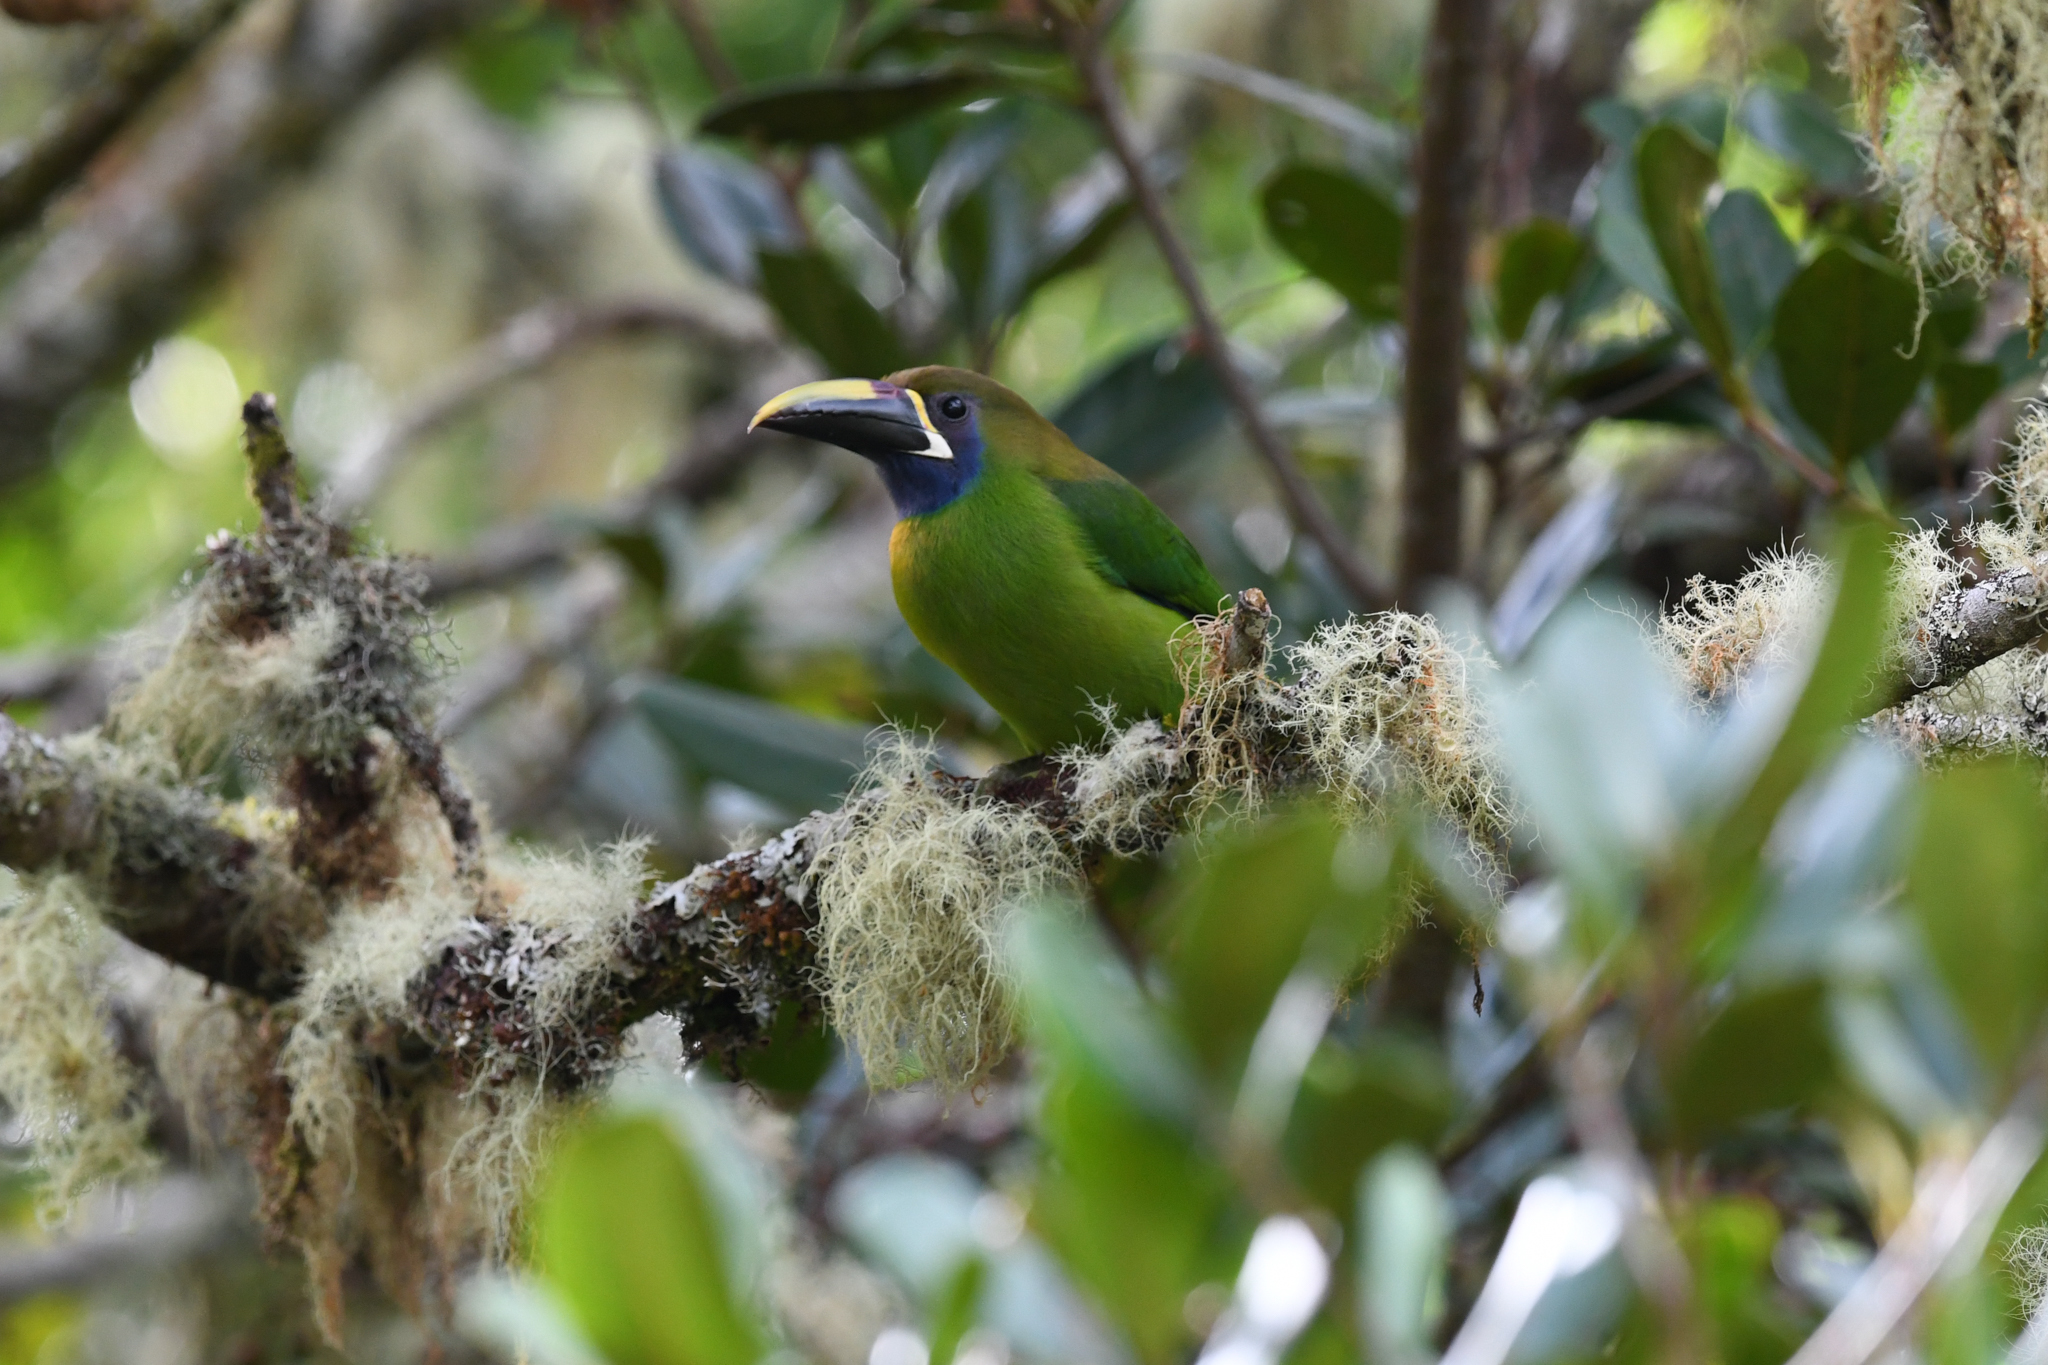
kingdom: Animalia
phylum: Chordata
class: Aves
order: Piciformes
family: Ramphastidae
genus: Aulacorhynchus
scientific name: Aulacorhynchus prasinus
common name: Emerald toucanet
